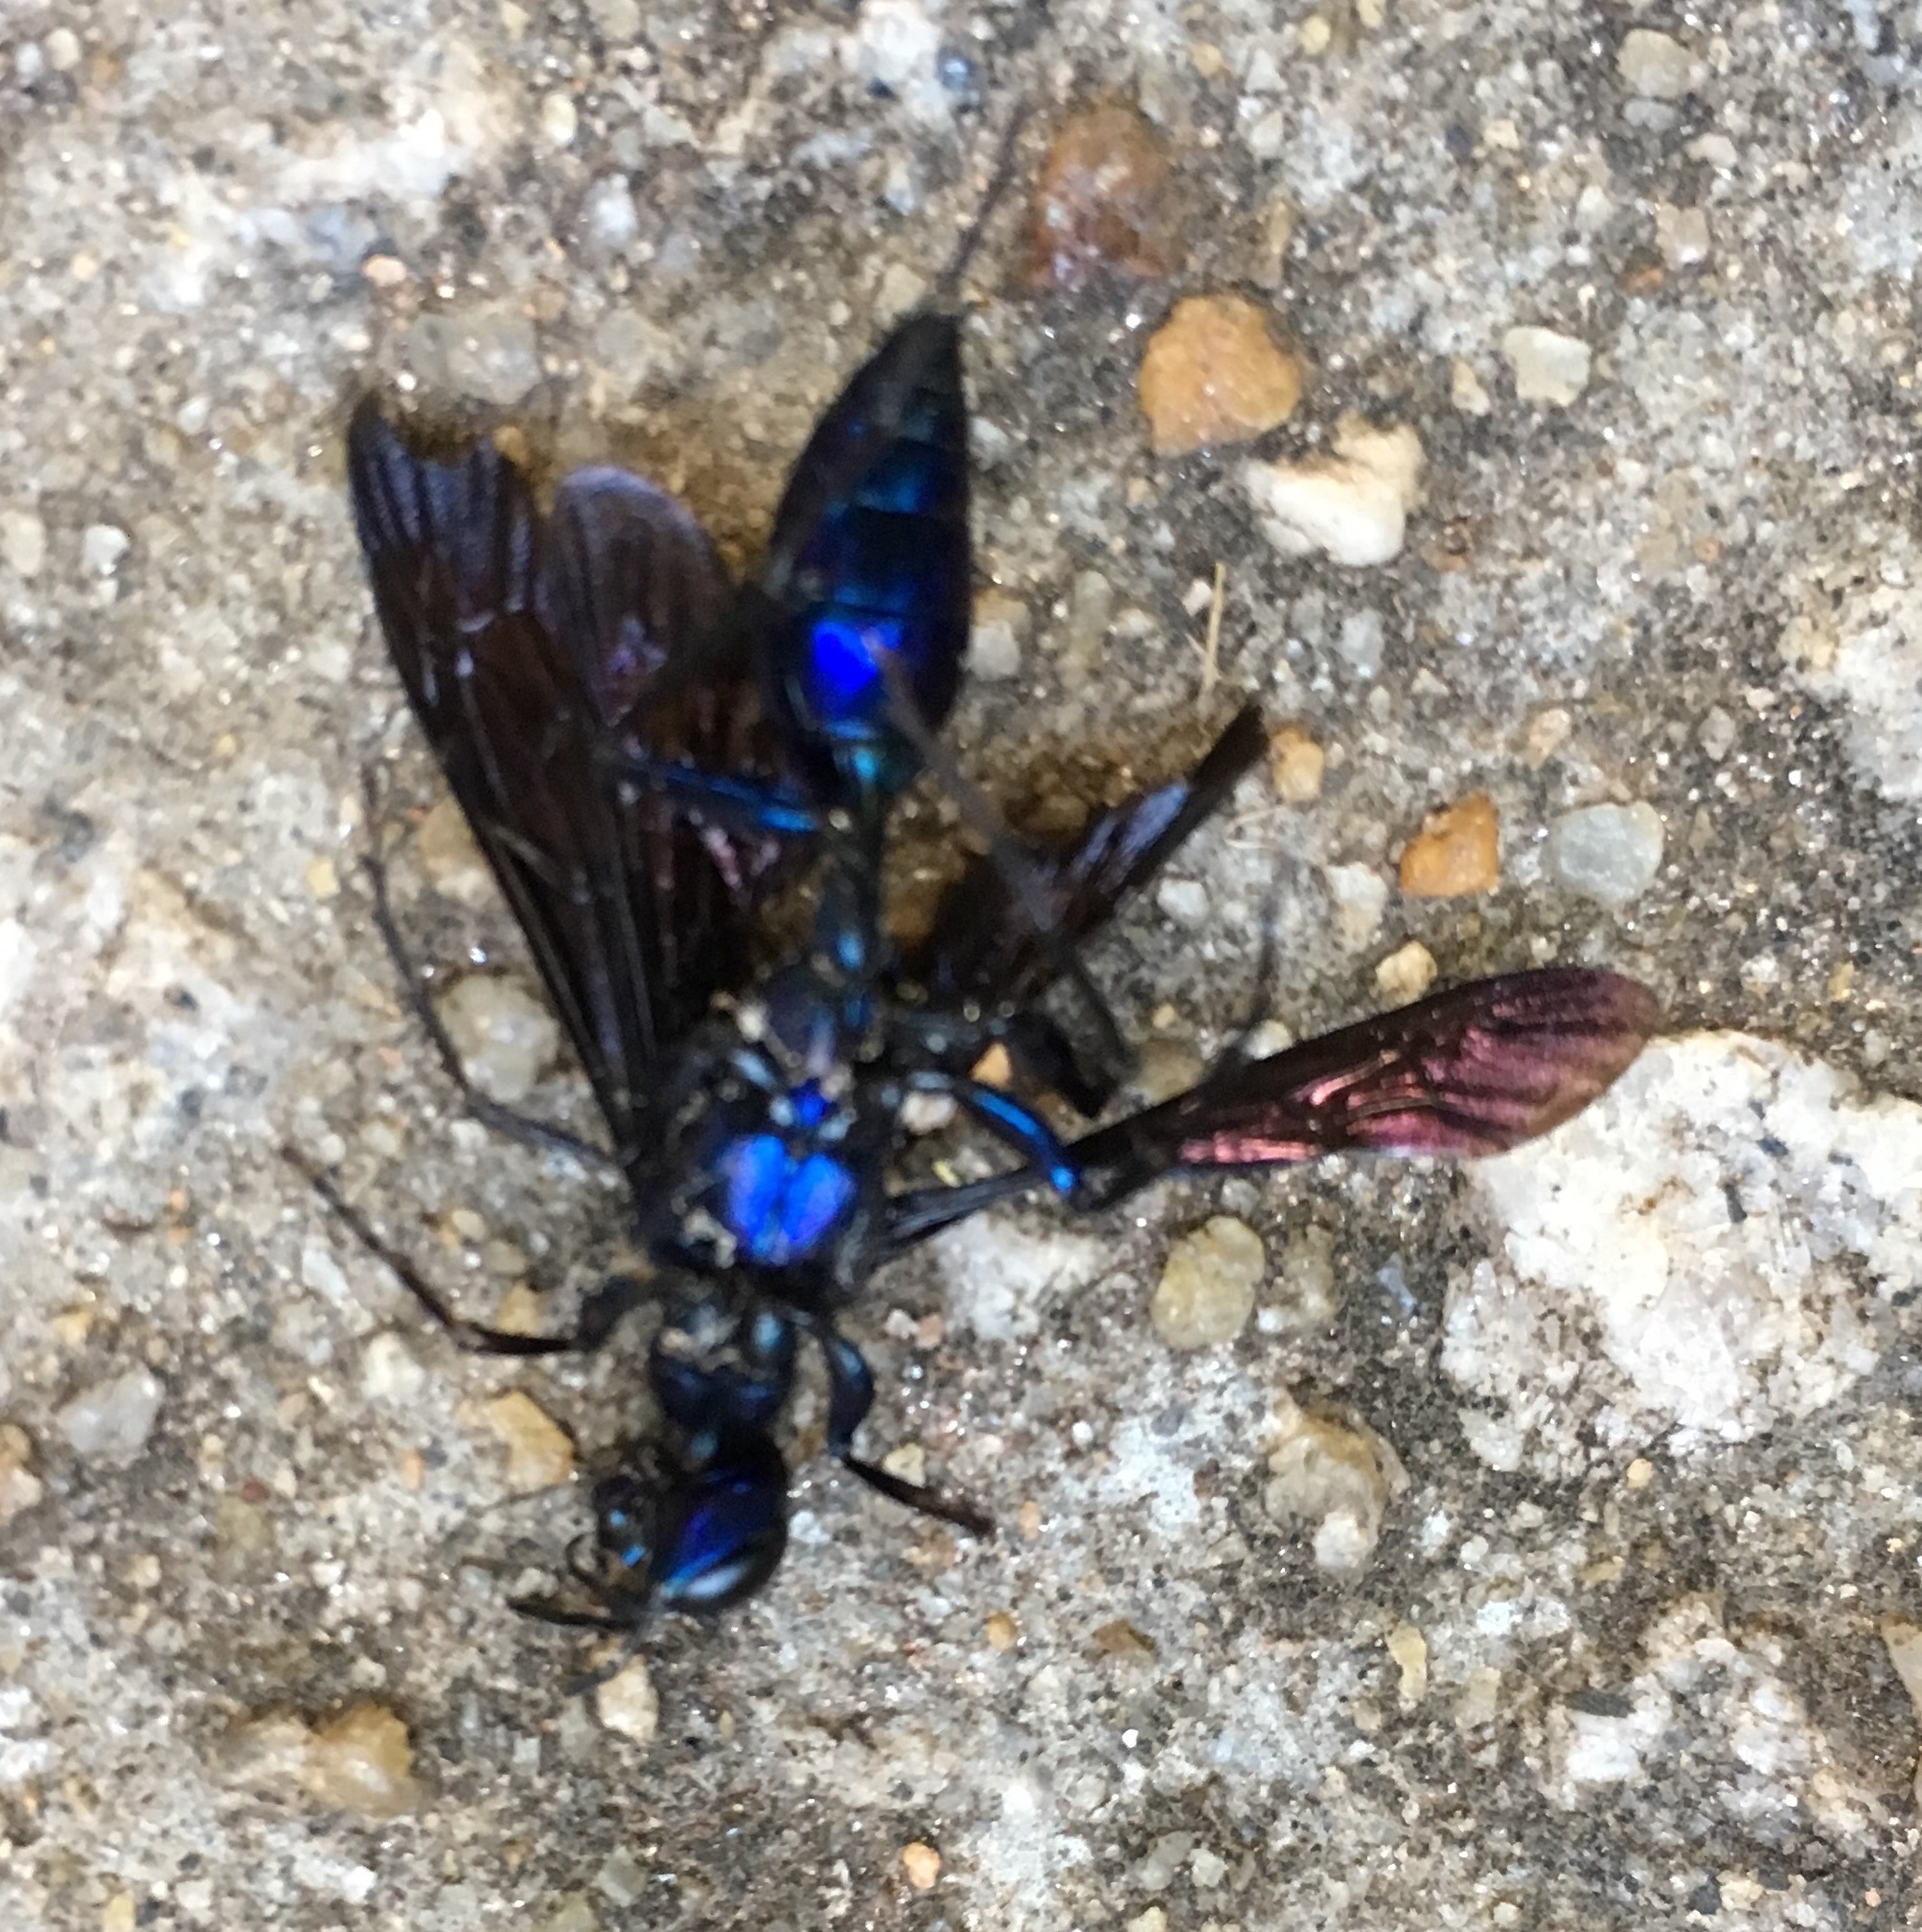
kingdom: Animalia
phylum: Arthropoda
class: Insecta
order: Hymenoptera
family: Sphecidae
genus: Chlorion
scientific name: Chlorion aerarium
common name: Steel-blue cricket hunter
